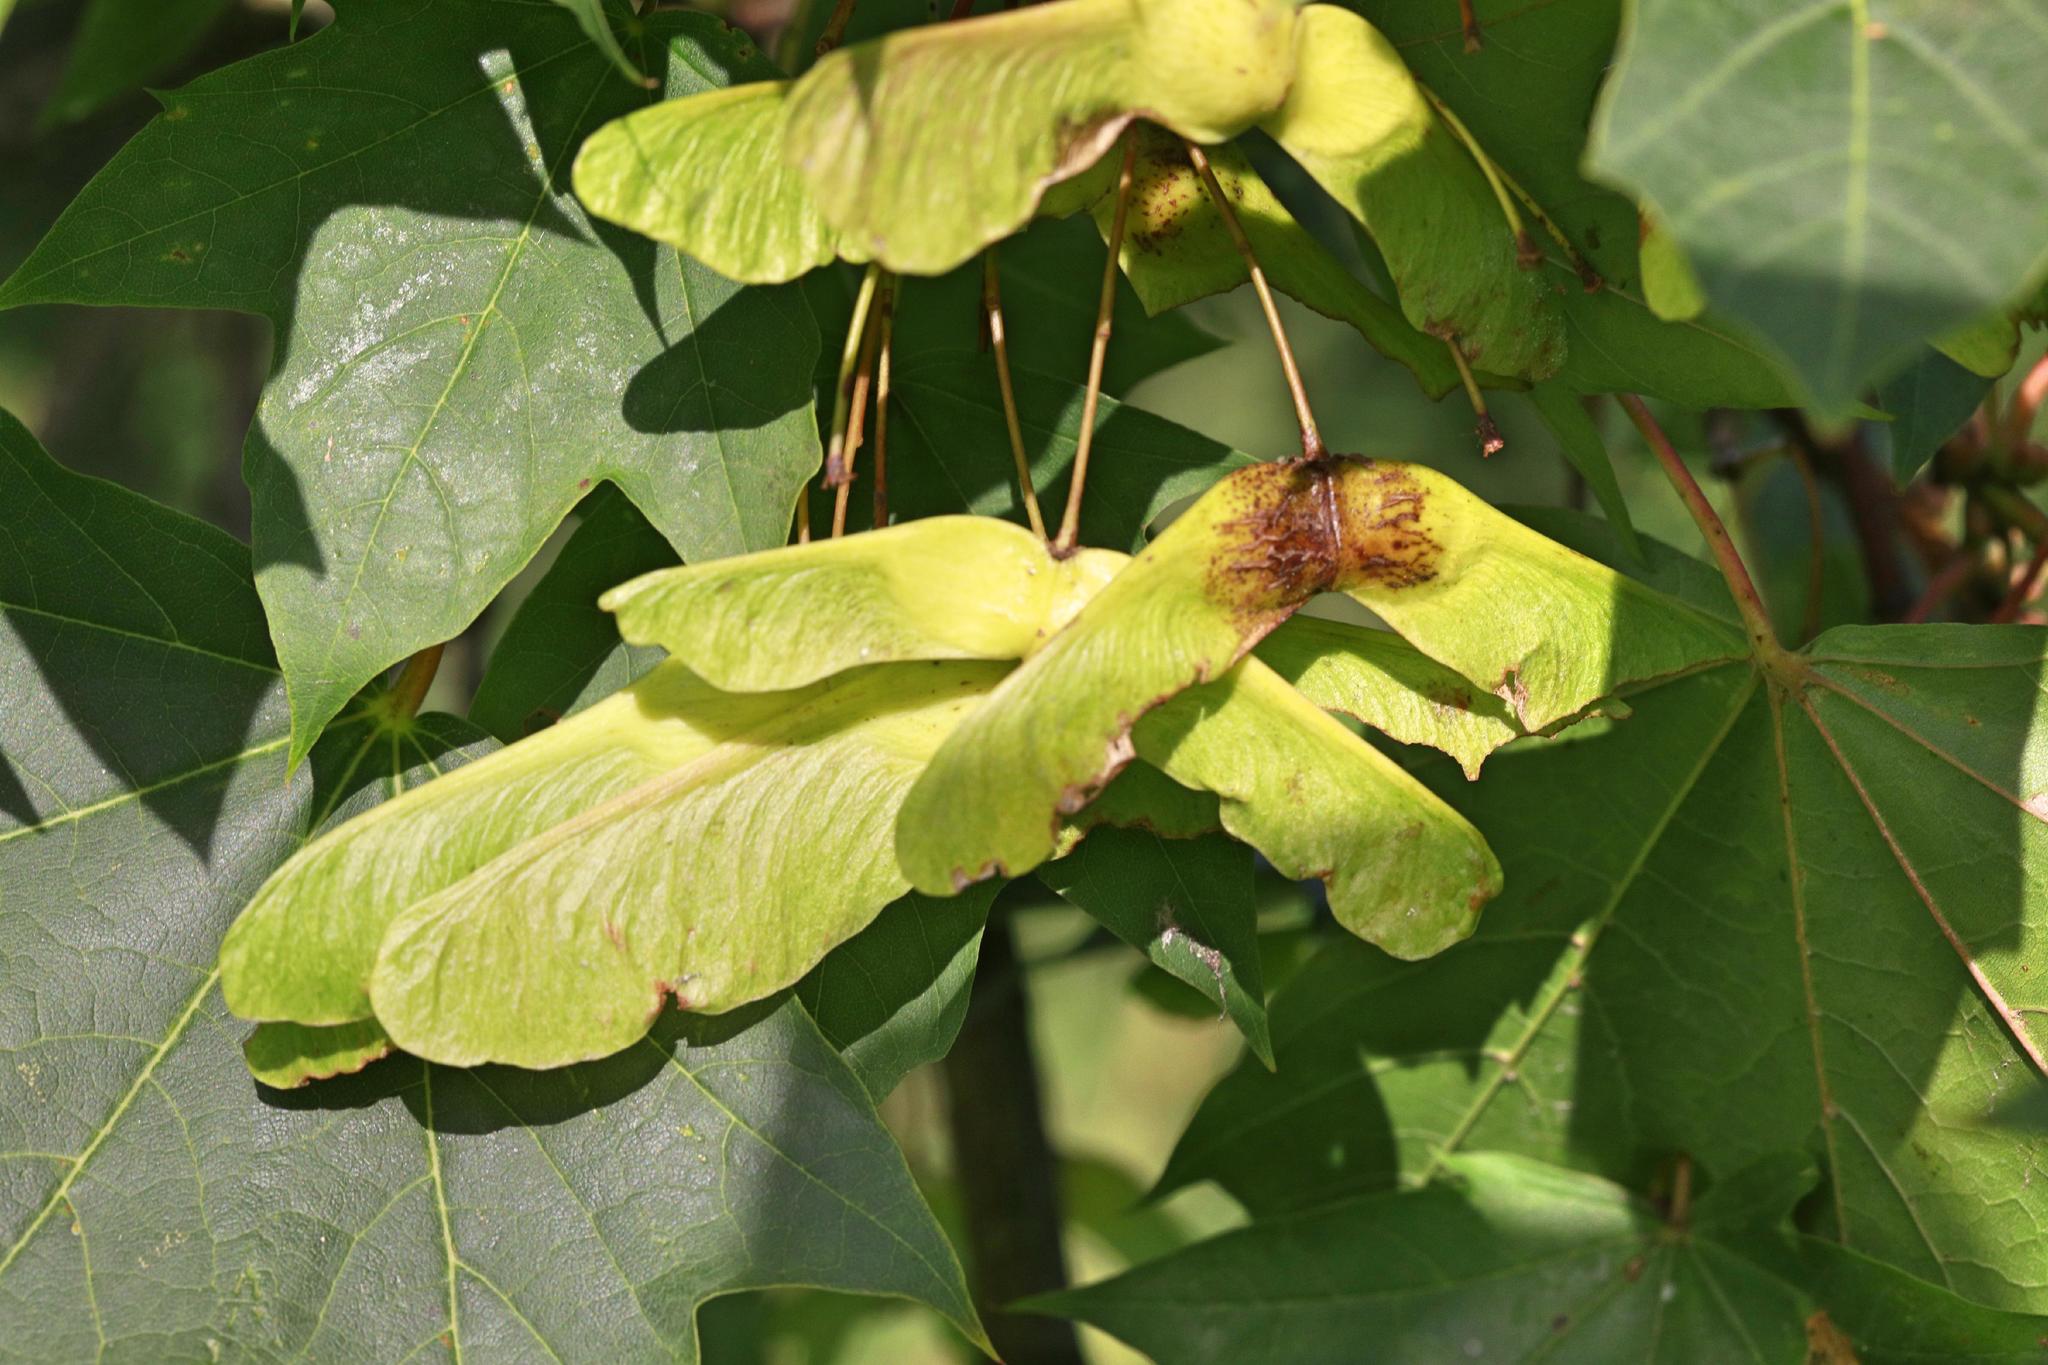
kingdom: Plantae
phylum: Tracheophyta
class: Magnoliopsida
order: Sapindales
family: Sapindaceae
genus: Acer
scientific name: Acer platanoides
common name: Norway maple
